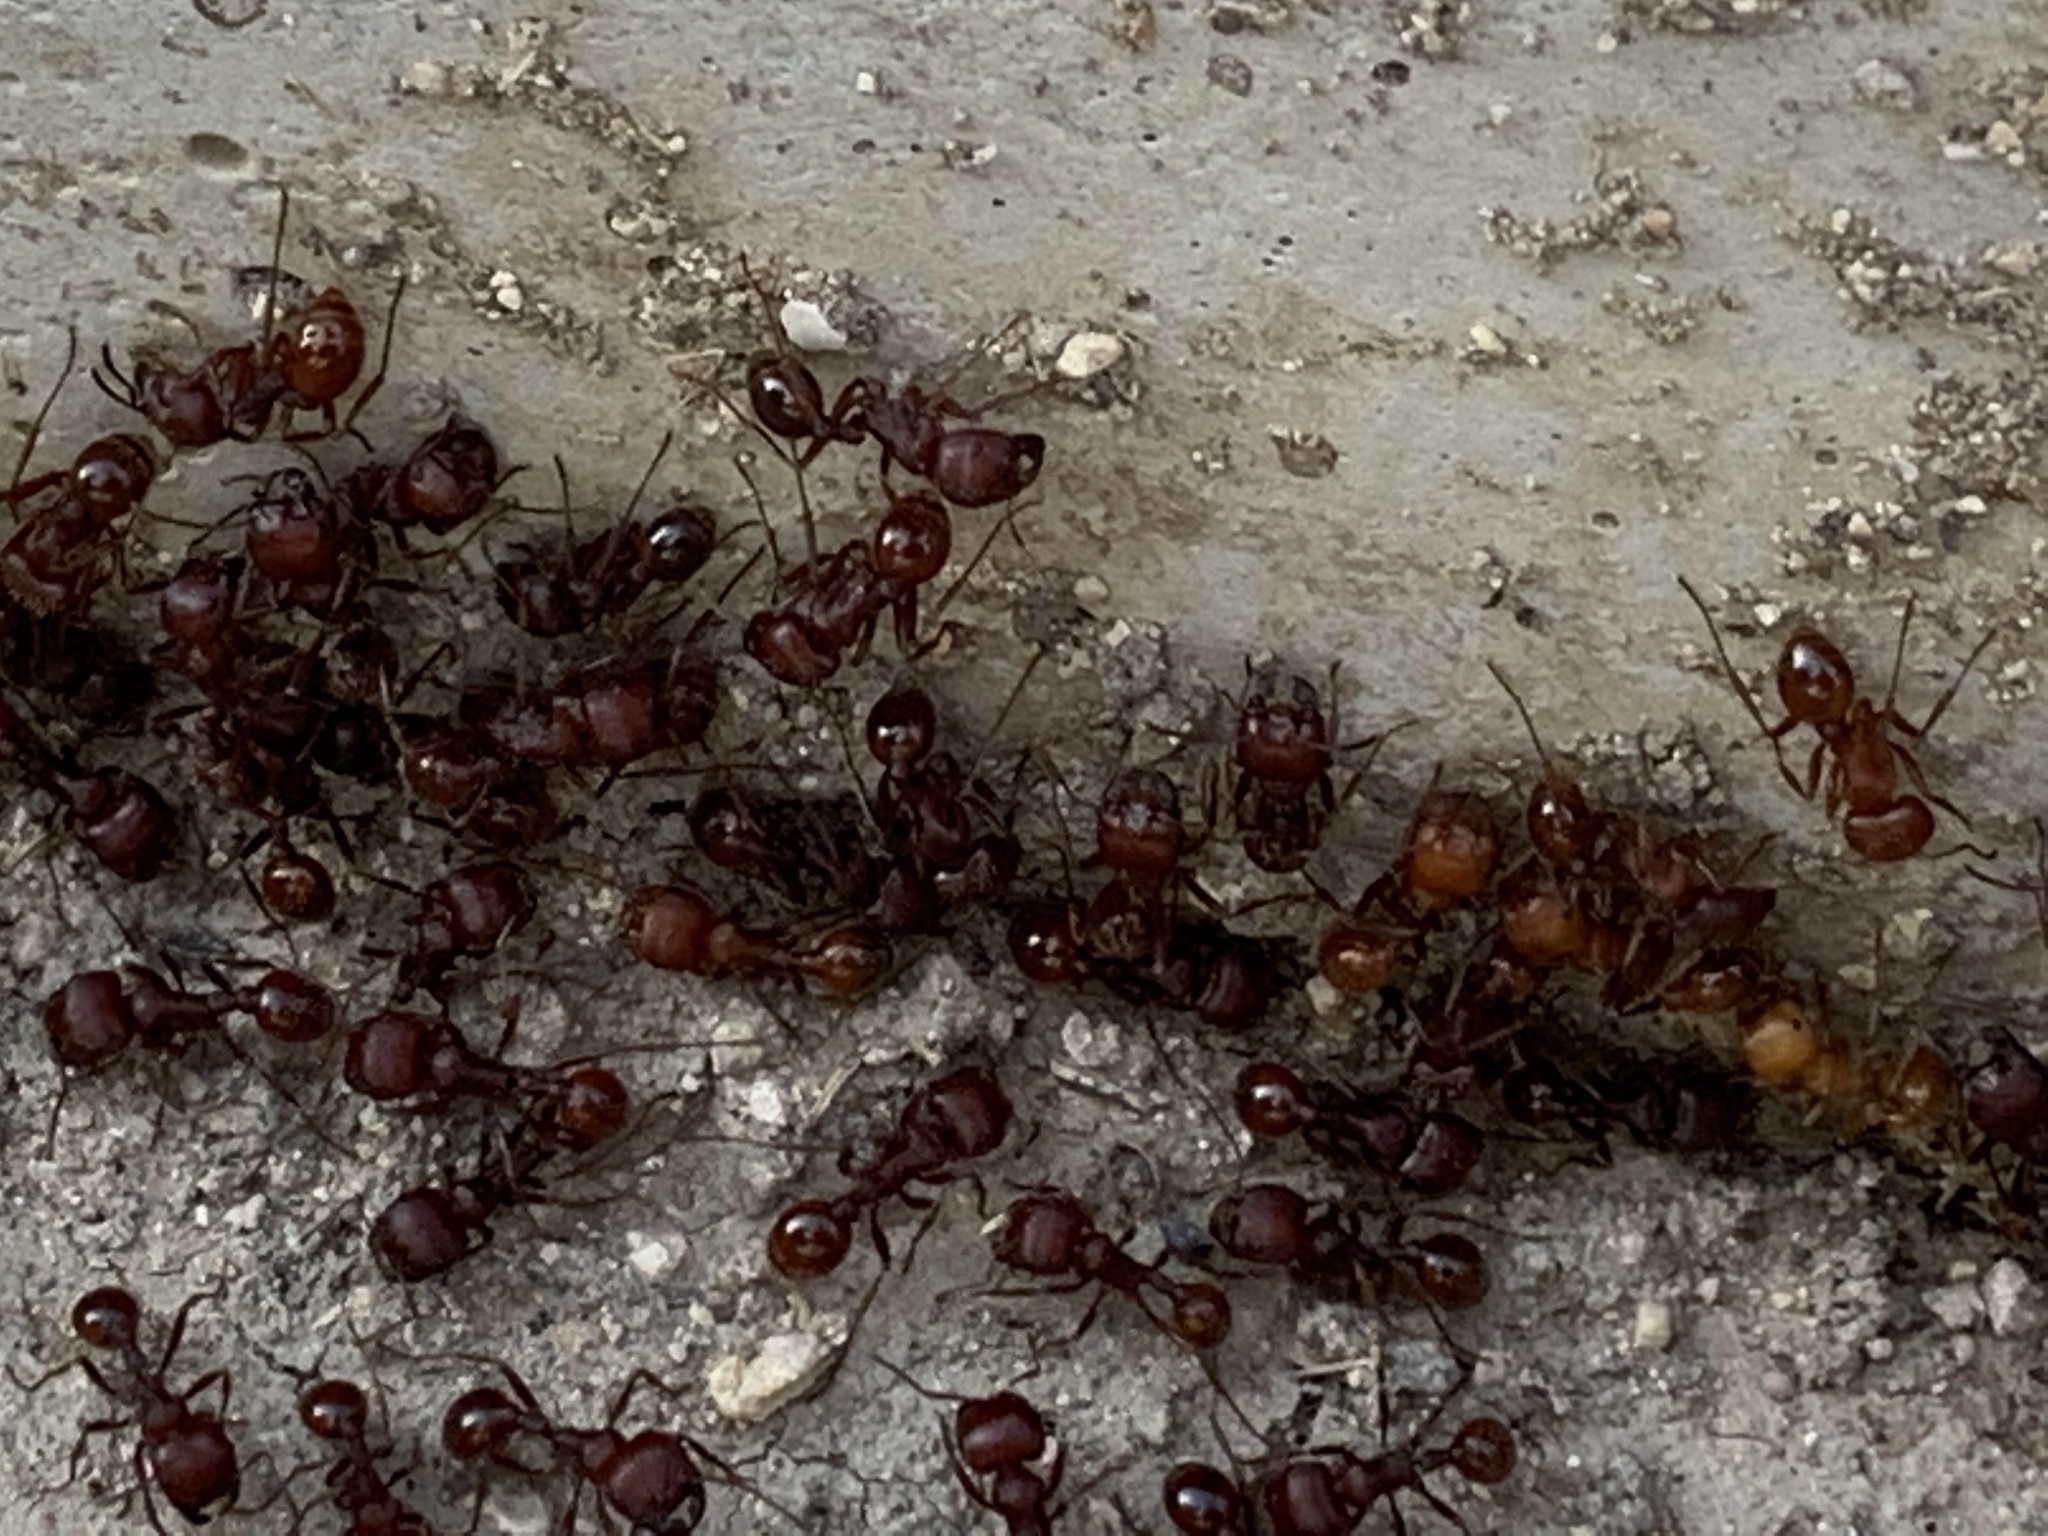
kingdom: Animalia
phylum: Arthropoda
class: Insecta
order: Hymenoptera
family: Formicidae
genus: Pogonomyrmex
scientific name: Pogonomyrmex barbatus
